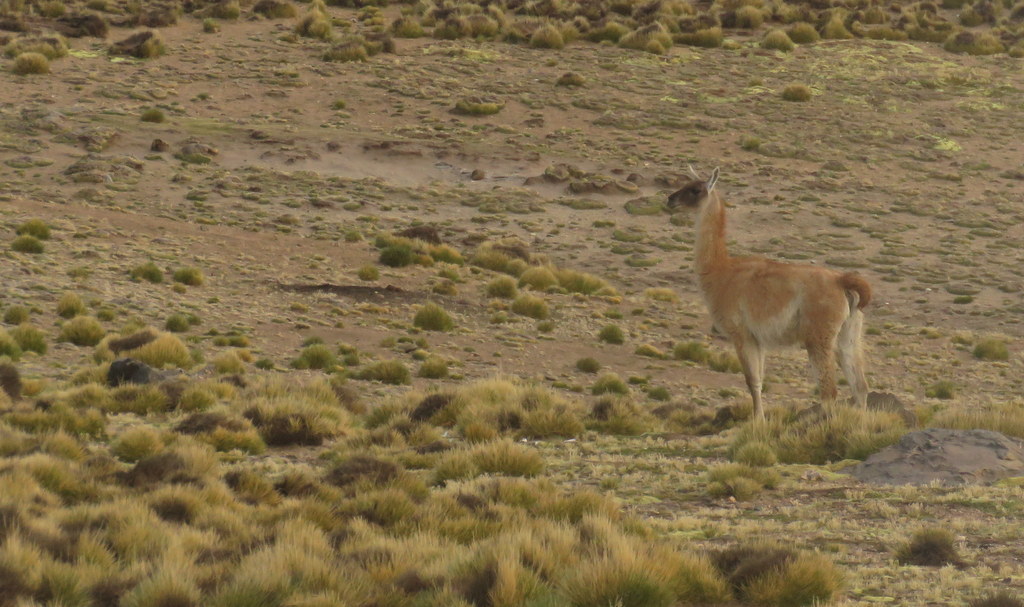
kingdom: Animalia
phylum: Chordata
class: Mammalia
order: Artiodactyla
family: Camelidae
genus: Lama
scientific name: Lama glama
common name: Llama
